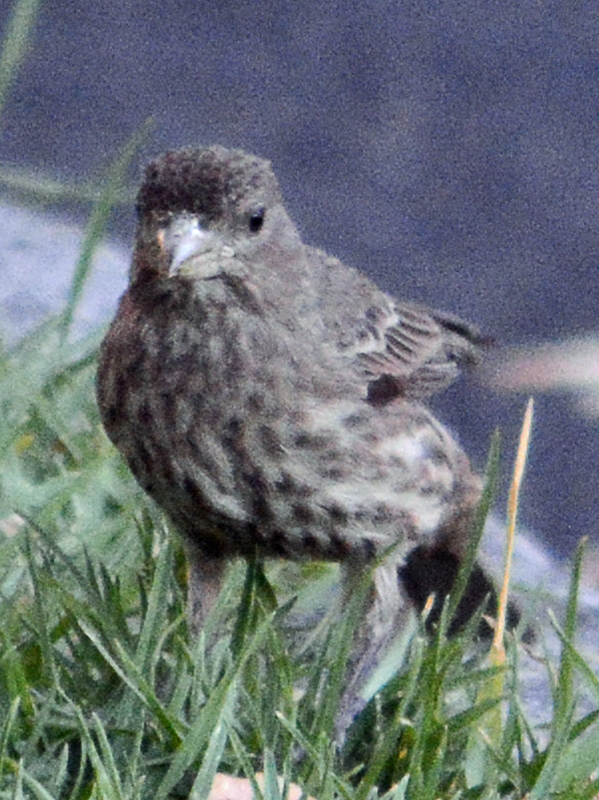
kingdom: Animalia
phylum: Chordata
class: Aves
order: Passeriformes
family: Fringillidae
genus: Haemorhous
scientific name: Haemorhous mexicanus
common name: House finch
